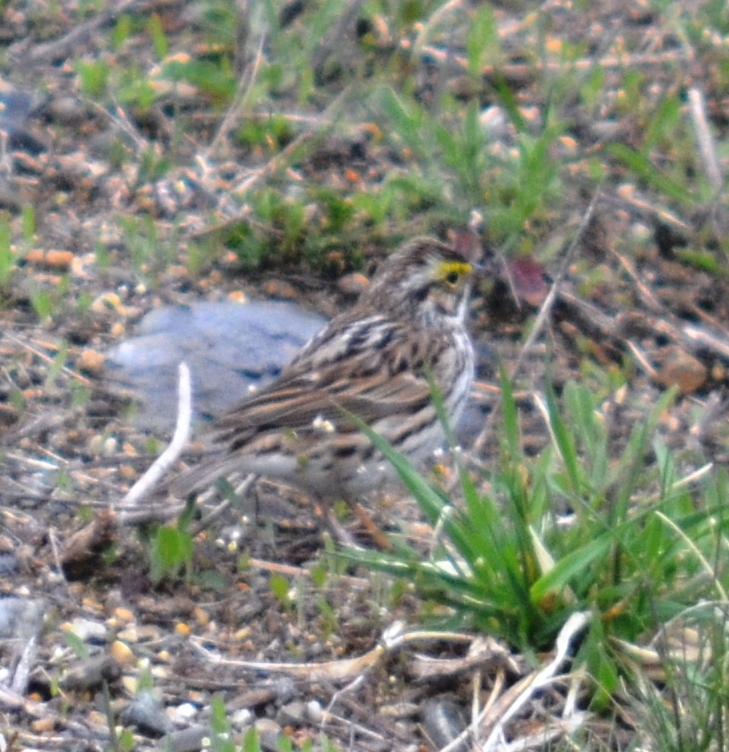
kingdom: Animalia
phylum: Chordata
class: Aves
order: Passeriformes
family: Passerellidae
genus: Passerculus
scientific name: Passerculus sandwichensis
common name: Savannah sparrow
